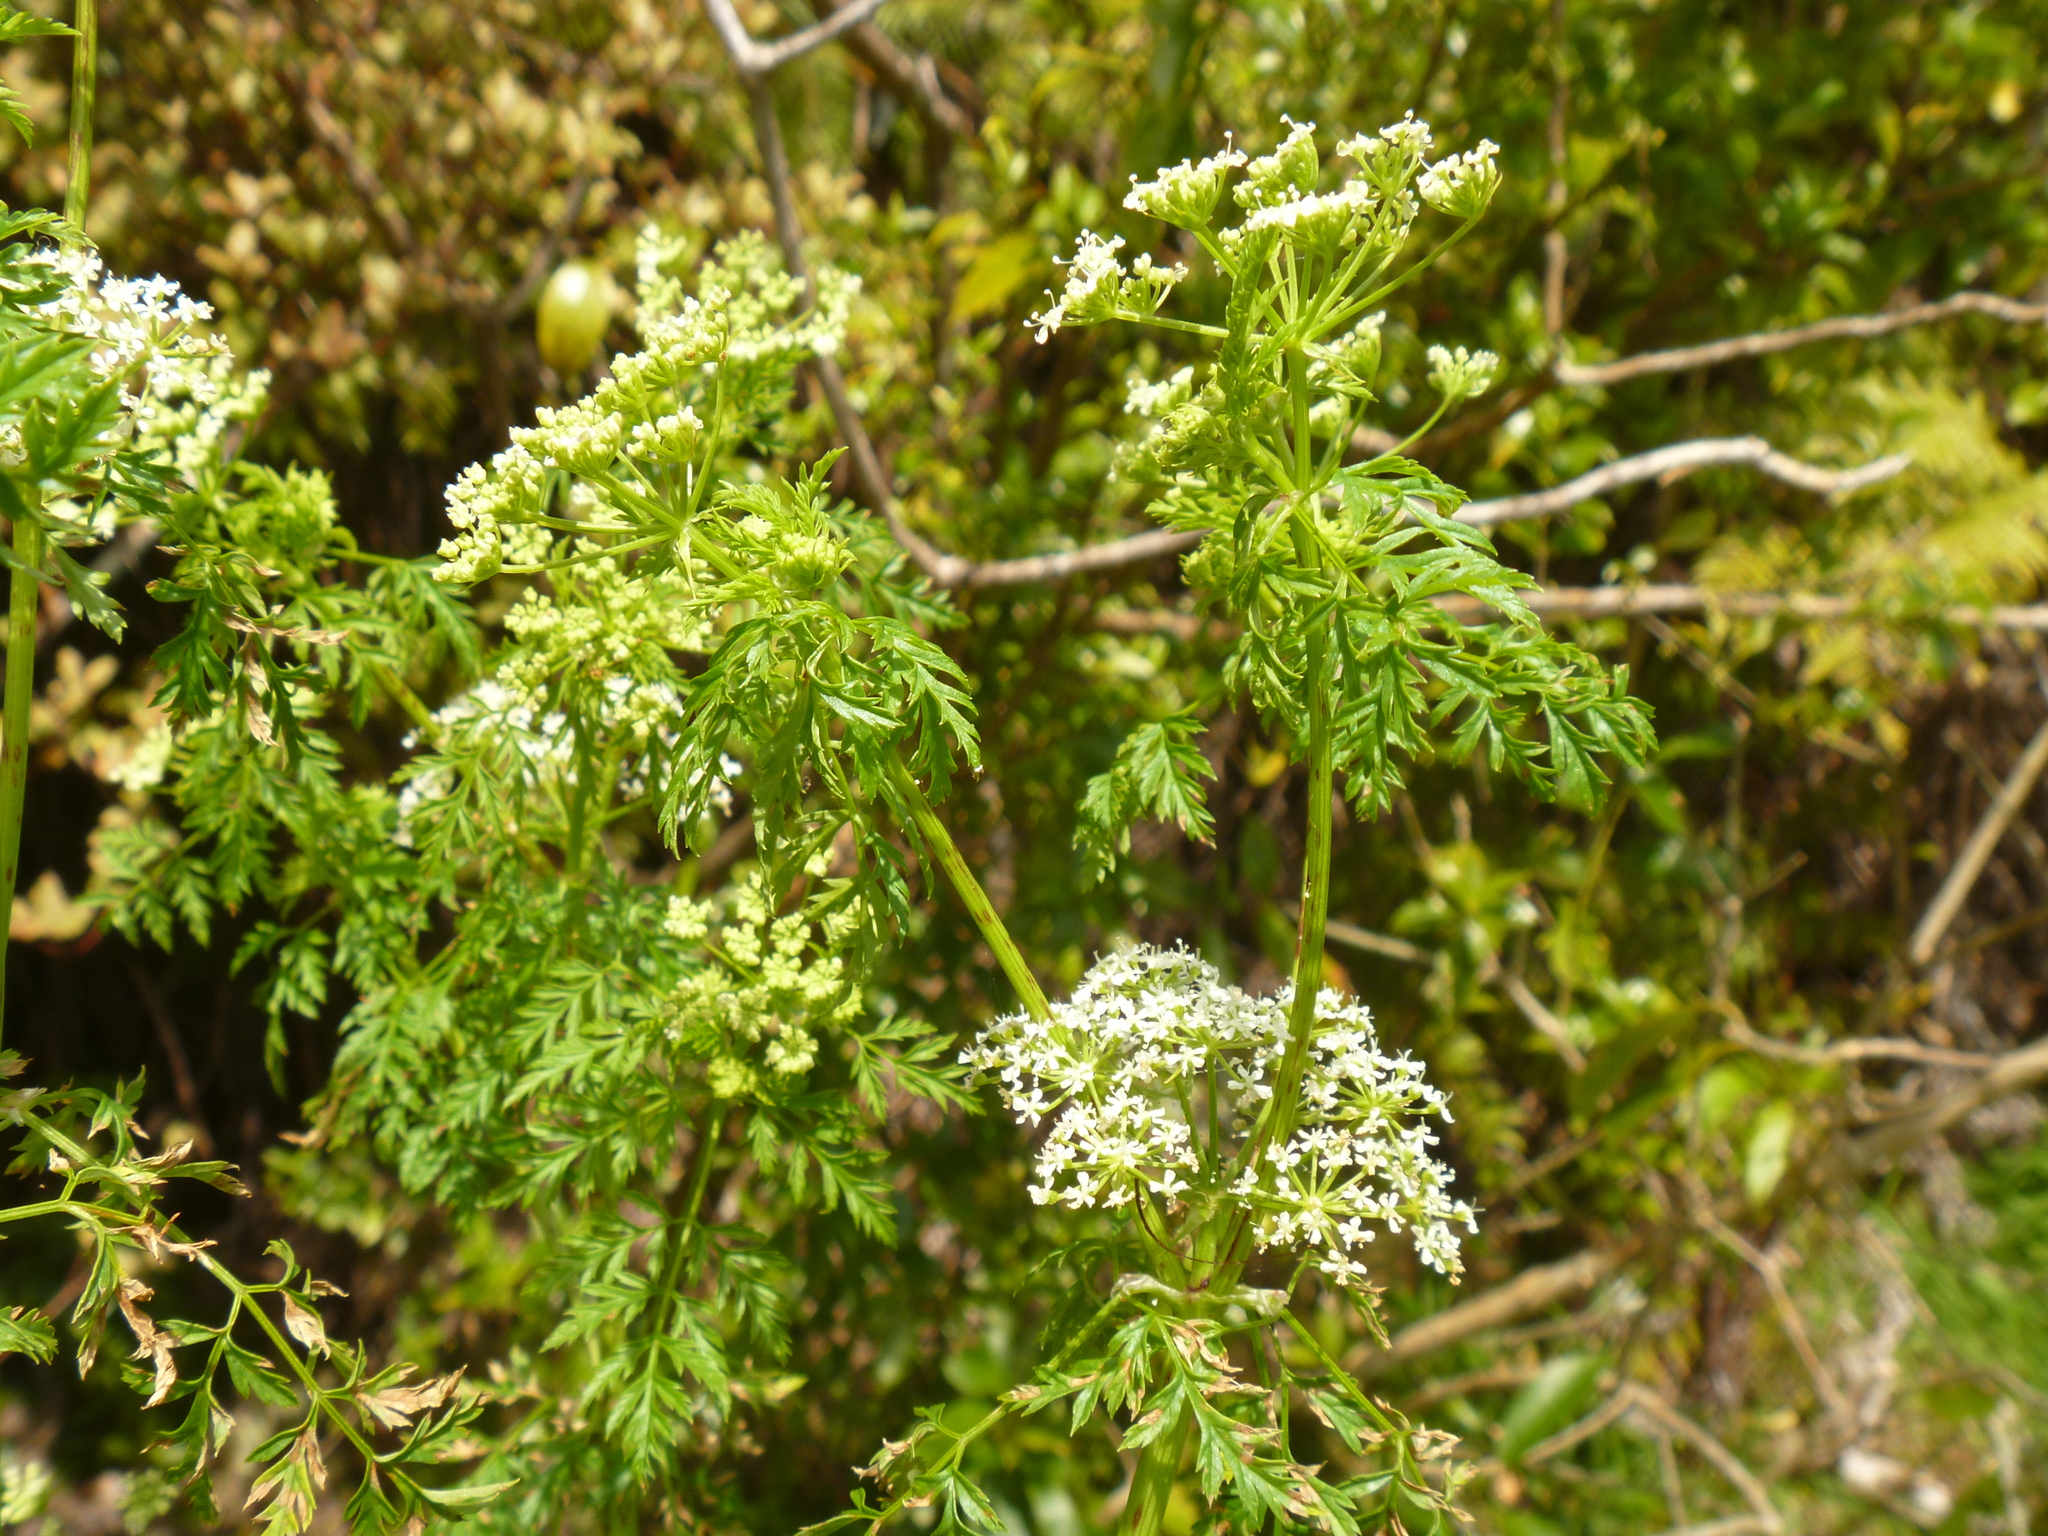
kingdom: Plantae
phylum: Tracheophyta
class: Magnoliopsida
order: Apiales
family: Apiaceae
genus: Conium
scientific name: Conium maculatum
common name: Hemlock
